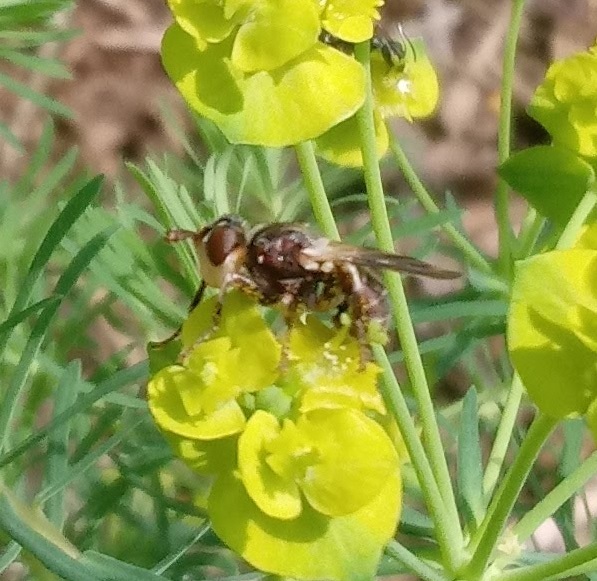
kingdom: Animalia
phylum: Arthropoda
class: Insecta
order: Diptera
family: Conopidae
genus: Myopa
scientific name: Myopa vesiculosa
